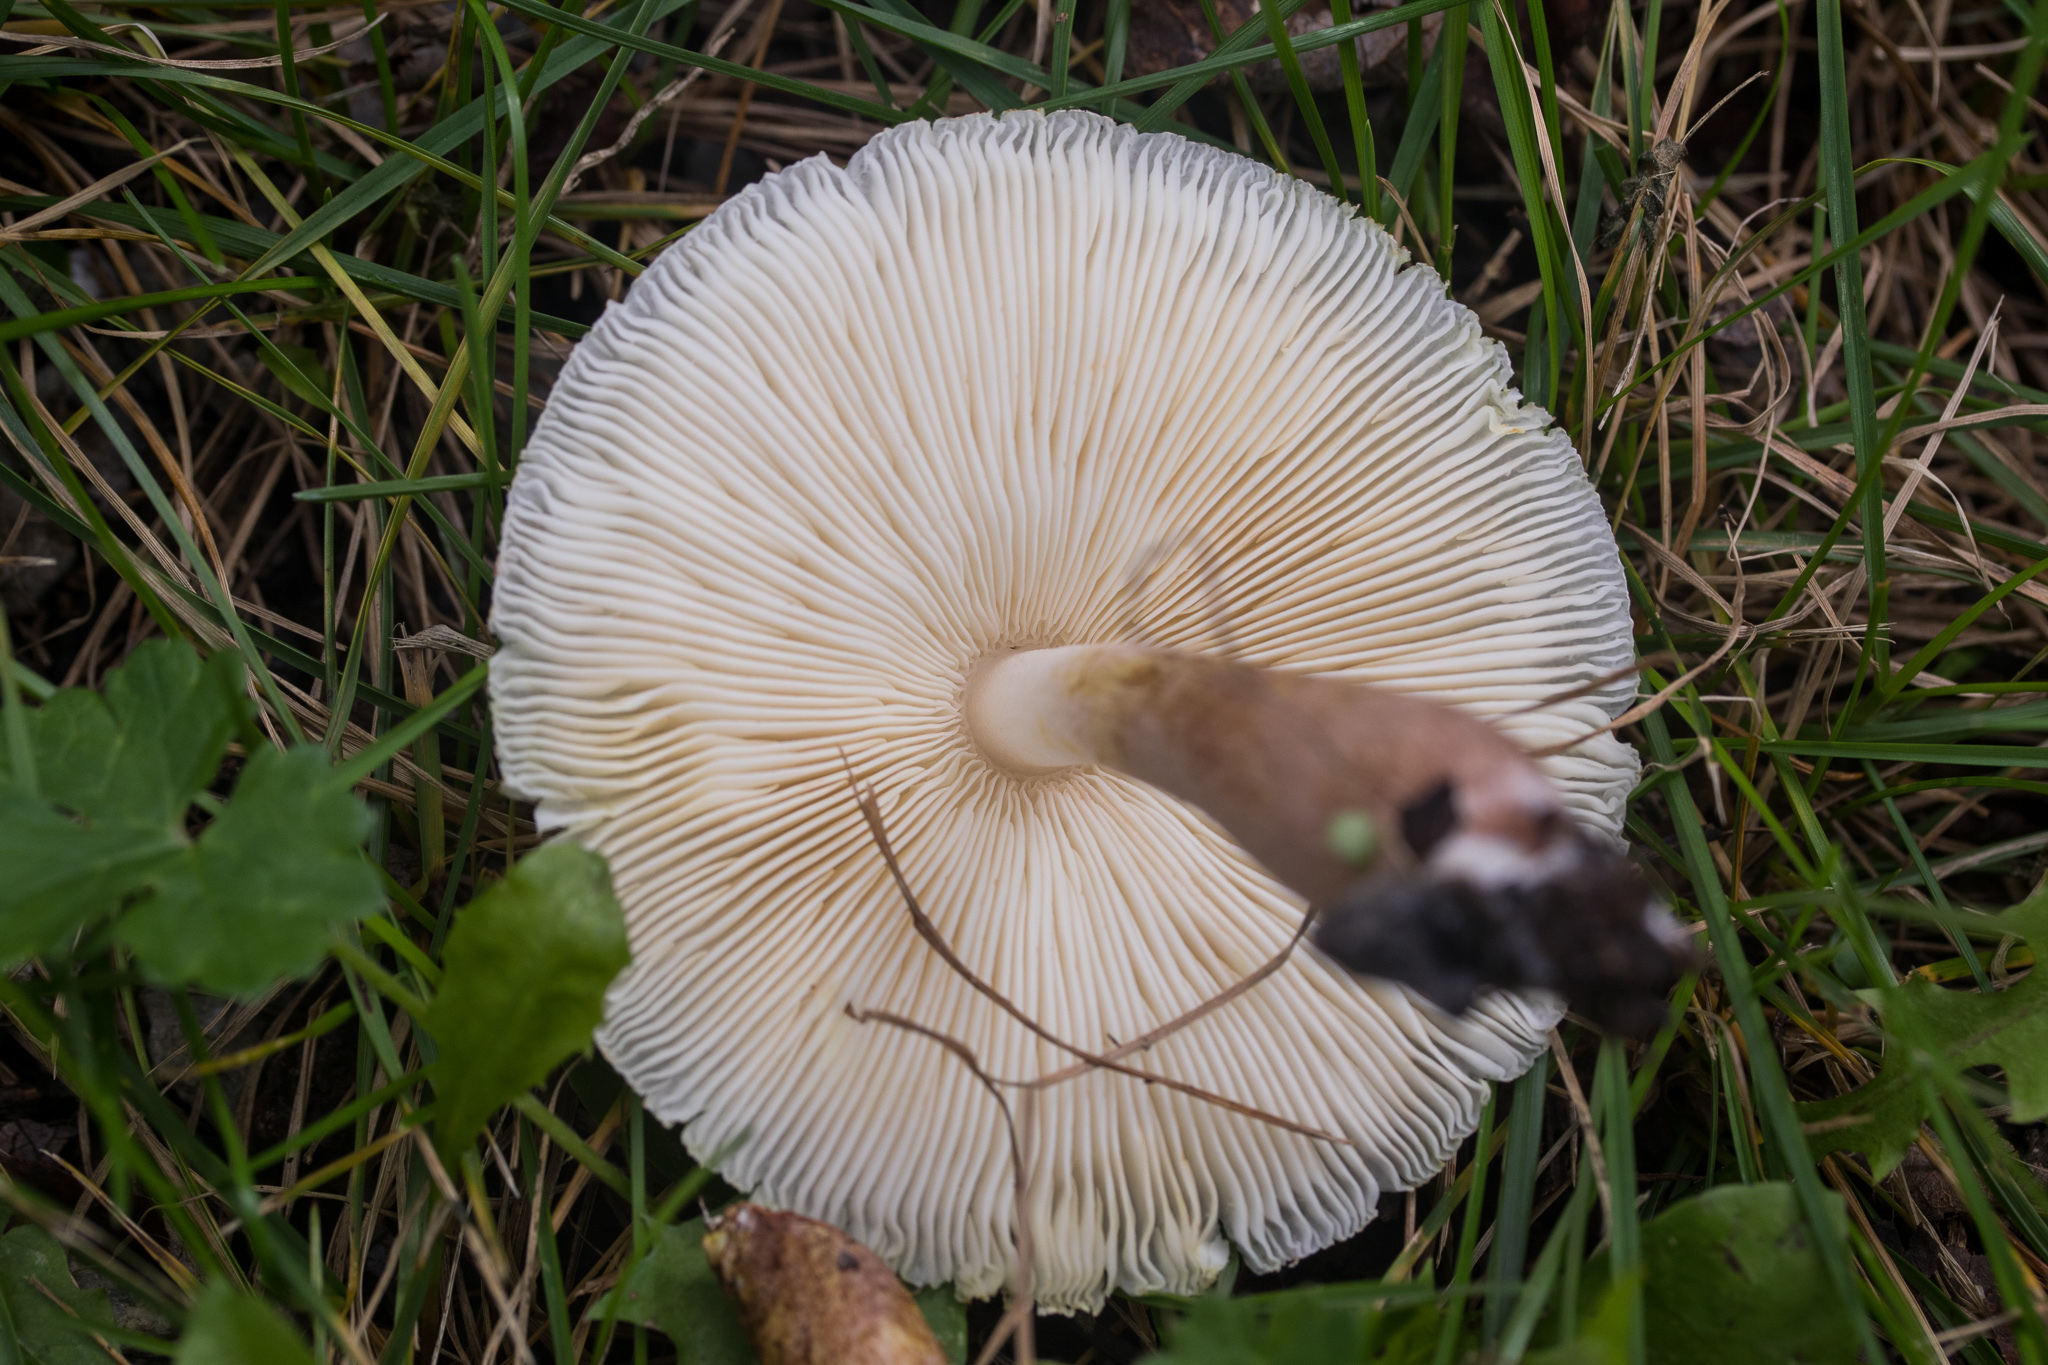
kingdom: Fungi
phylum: Basidiomycota
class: Agaricomycetes
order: Agaricales
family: Agaricaceae
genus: Leucoagaricus
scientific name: Leucoagaricus americanus
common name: Reddening lepiota
